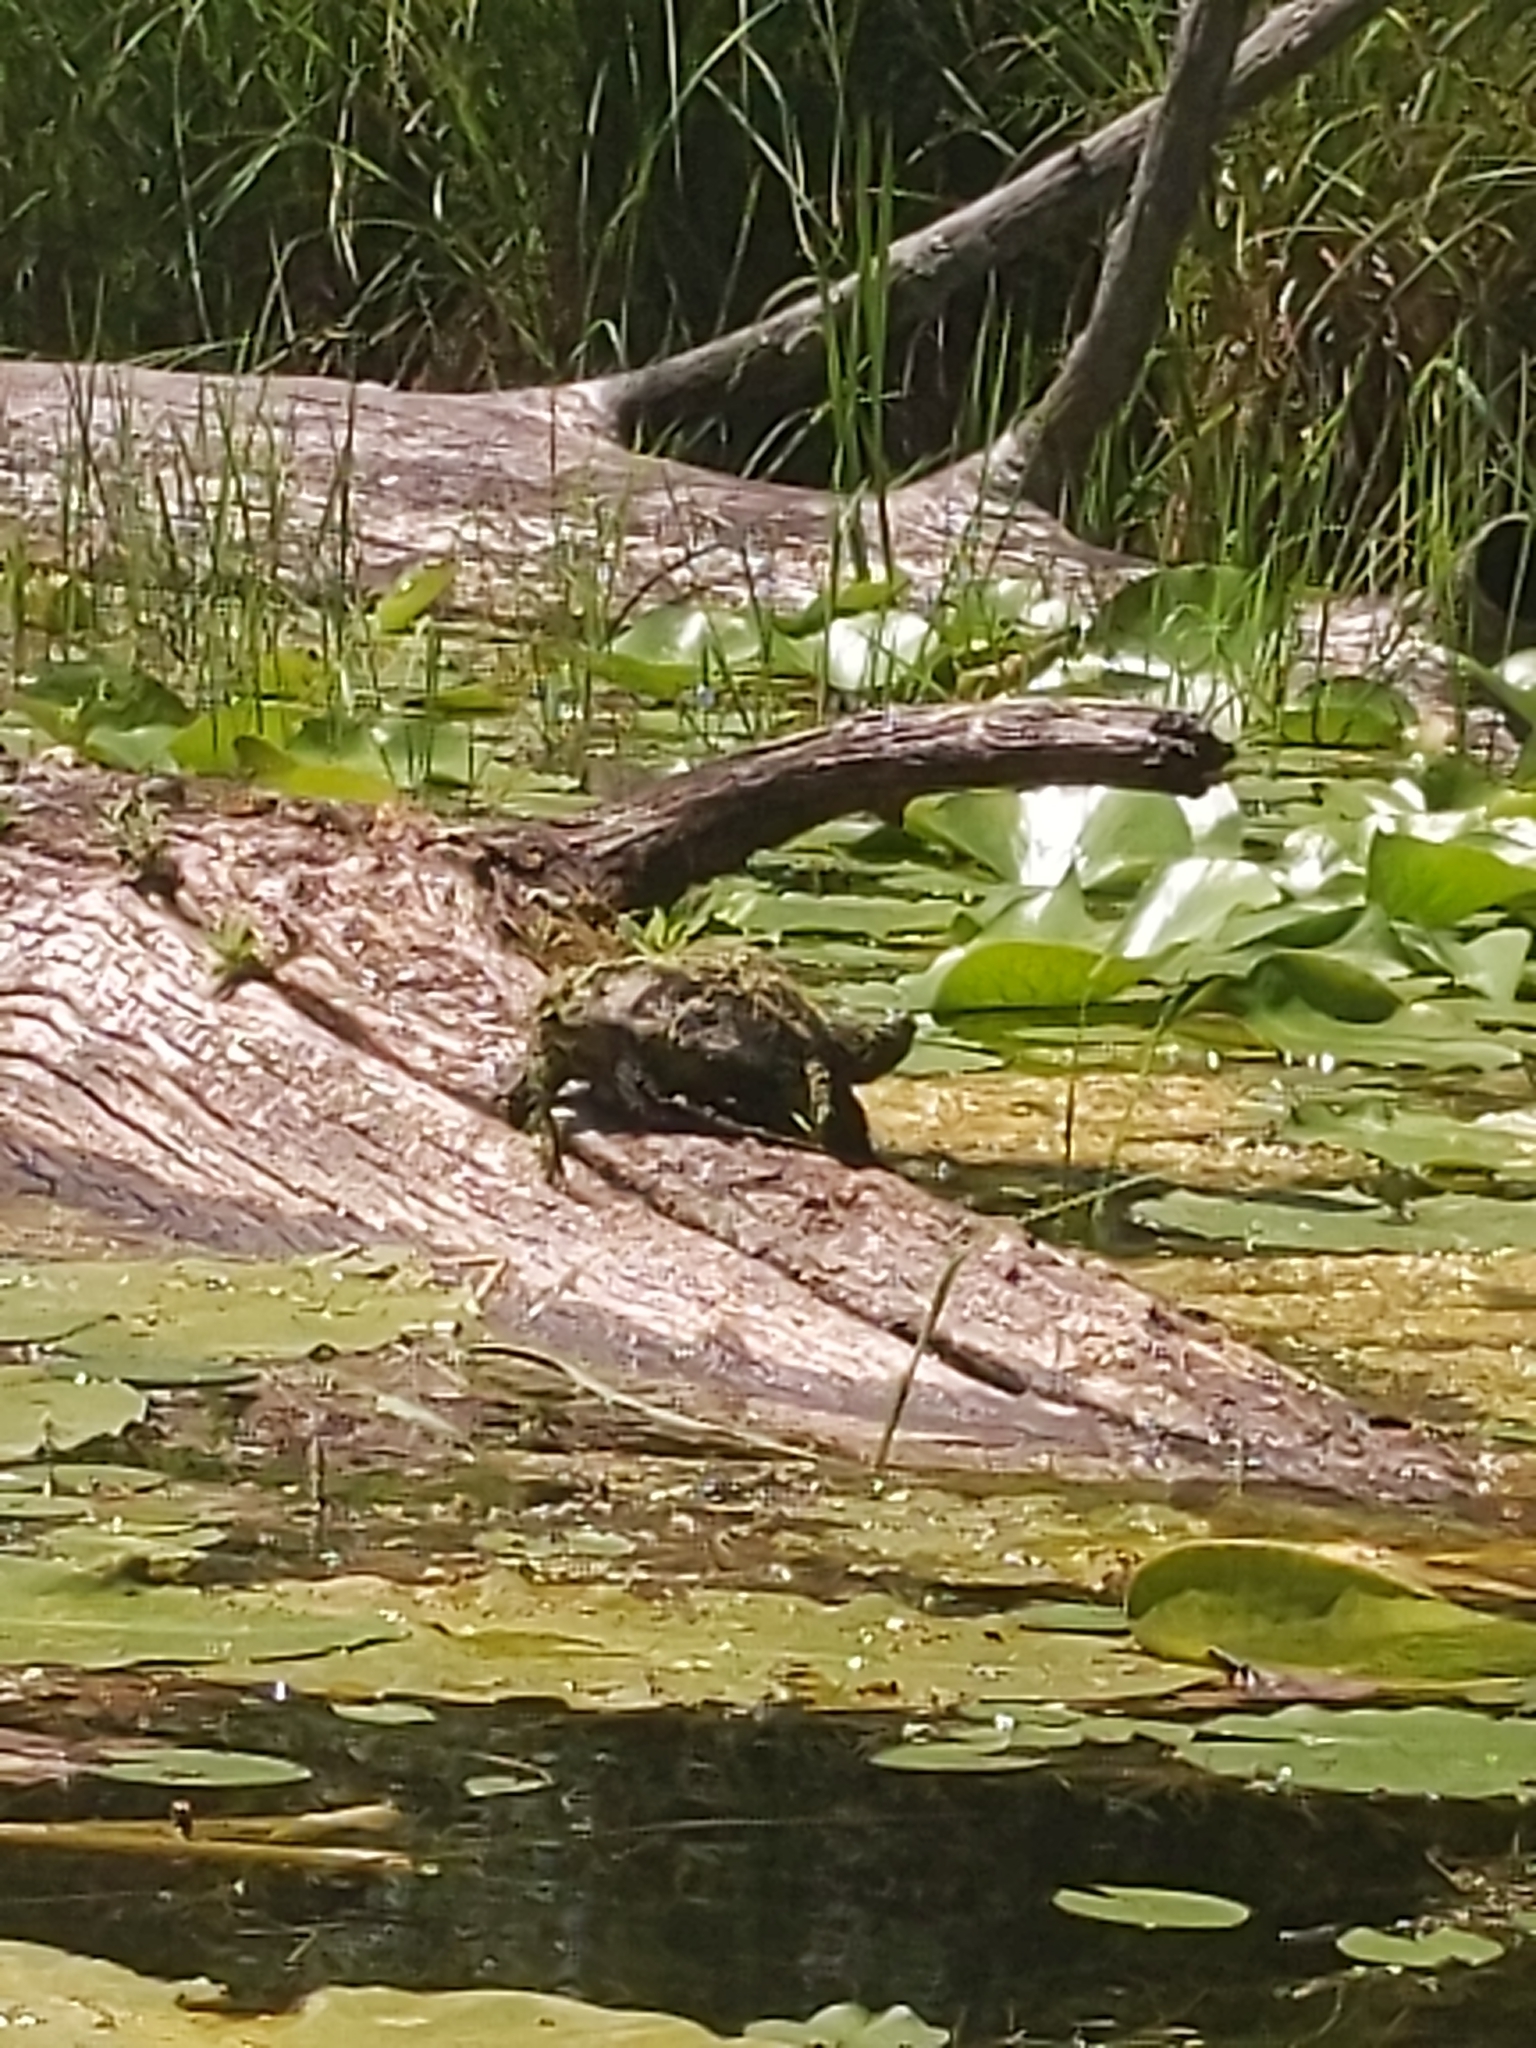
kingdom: Animalia
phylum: Chordata
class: Testudines
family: Chelydridae
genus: Chelydra
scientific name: Chelydra serpentina
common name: Common snapping turtle
